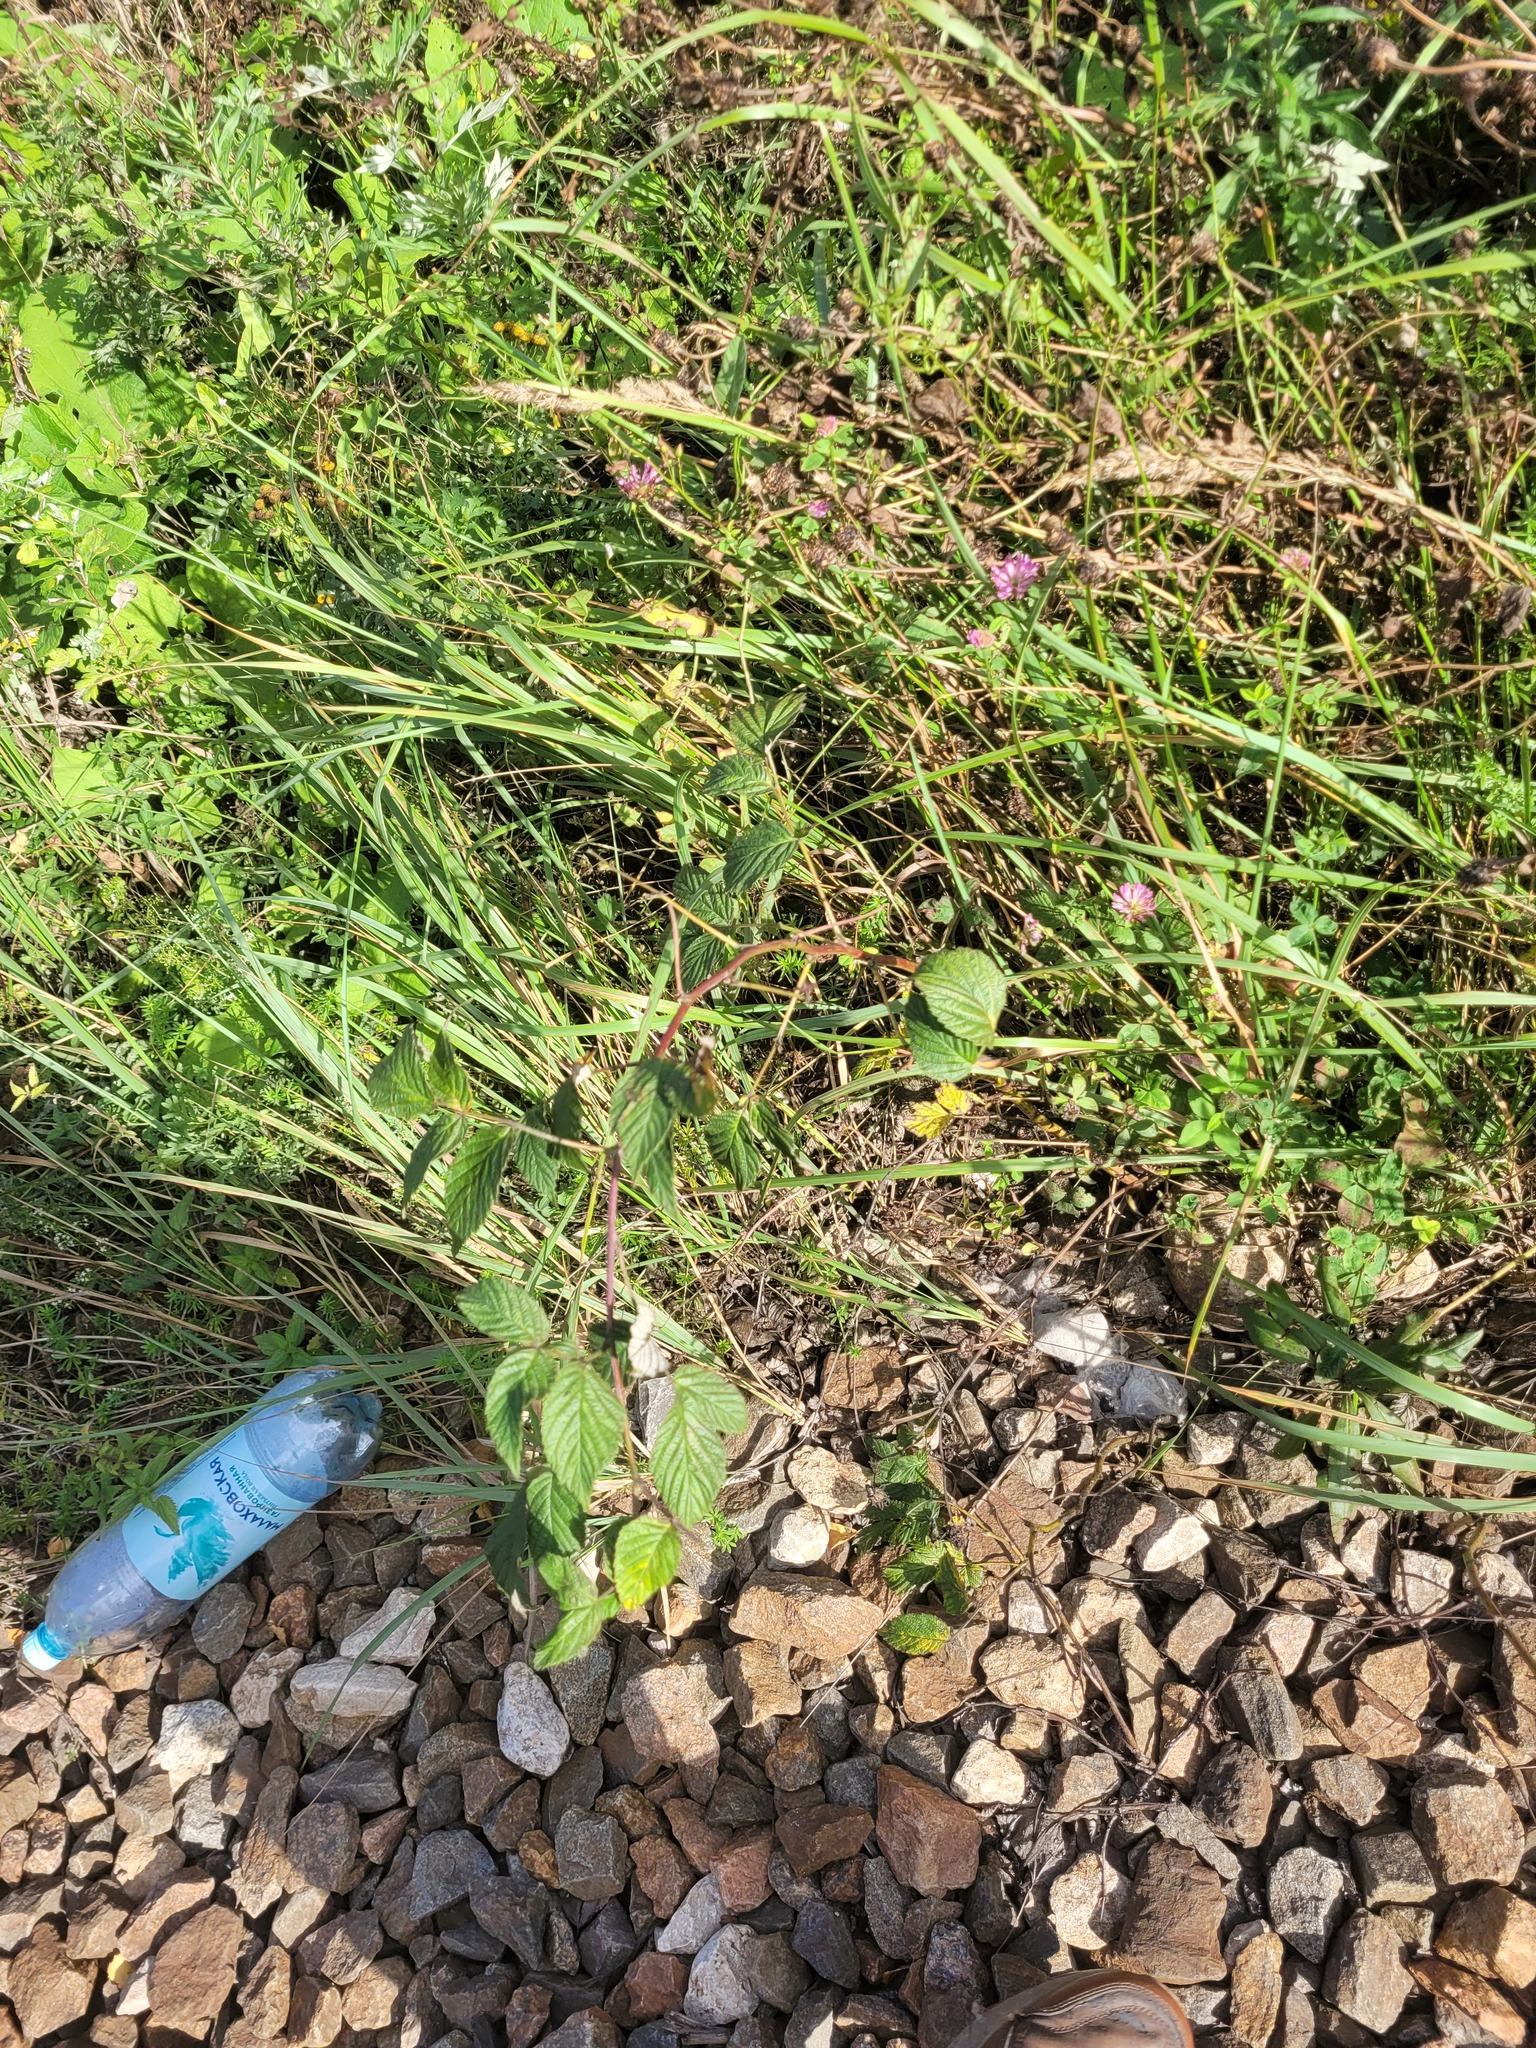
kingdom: Plantae
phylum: Tracheophyta
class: Magnoliopsida
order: Rosales
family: Rosaceae
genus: Rubus
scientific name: Rubus idaeus
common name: Raspberry
